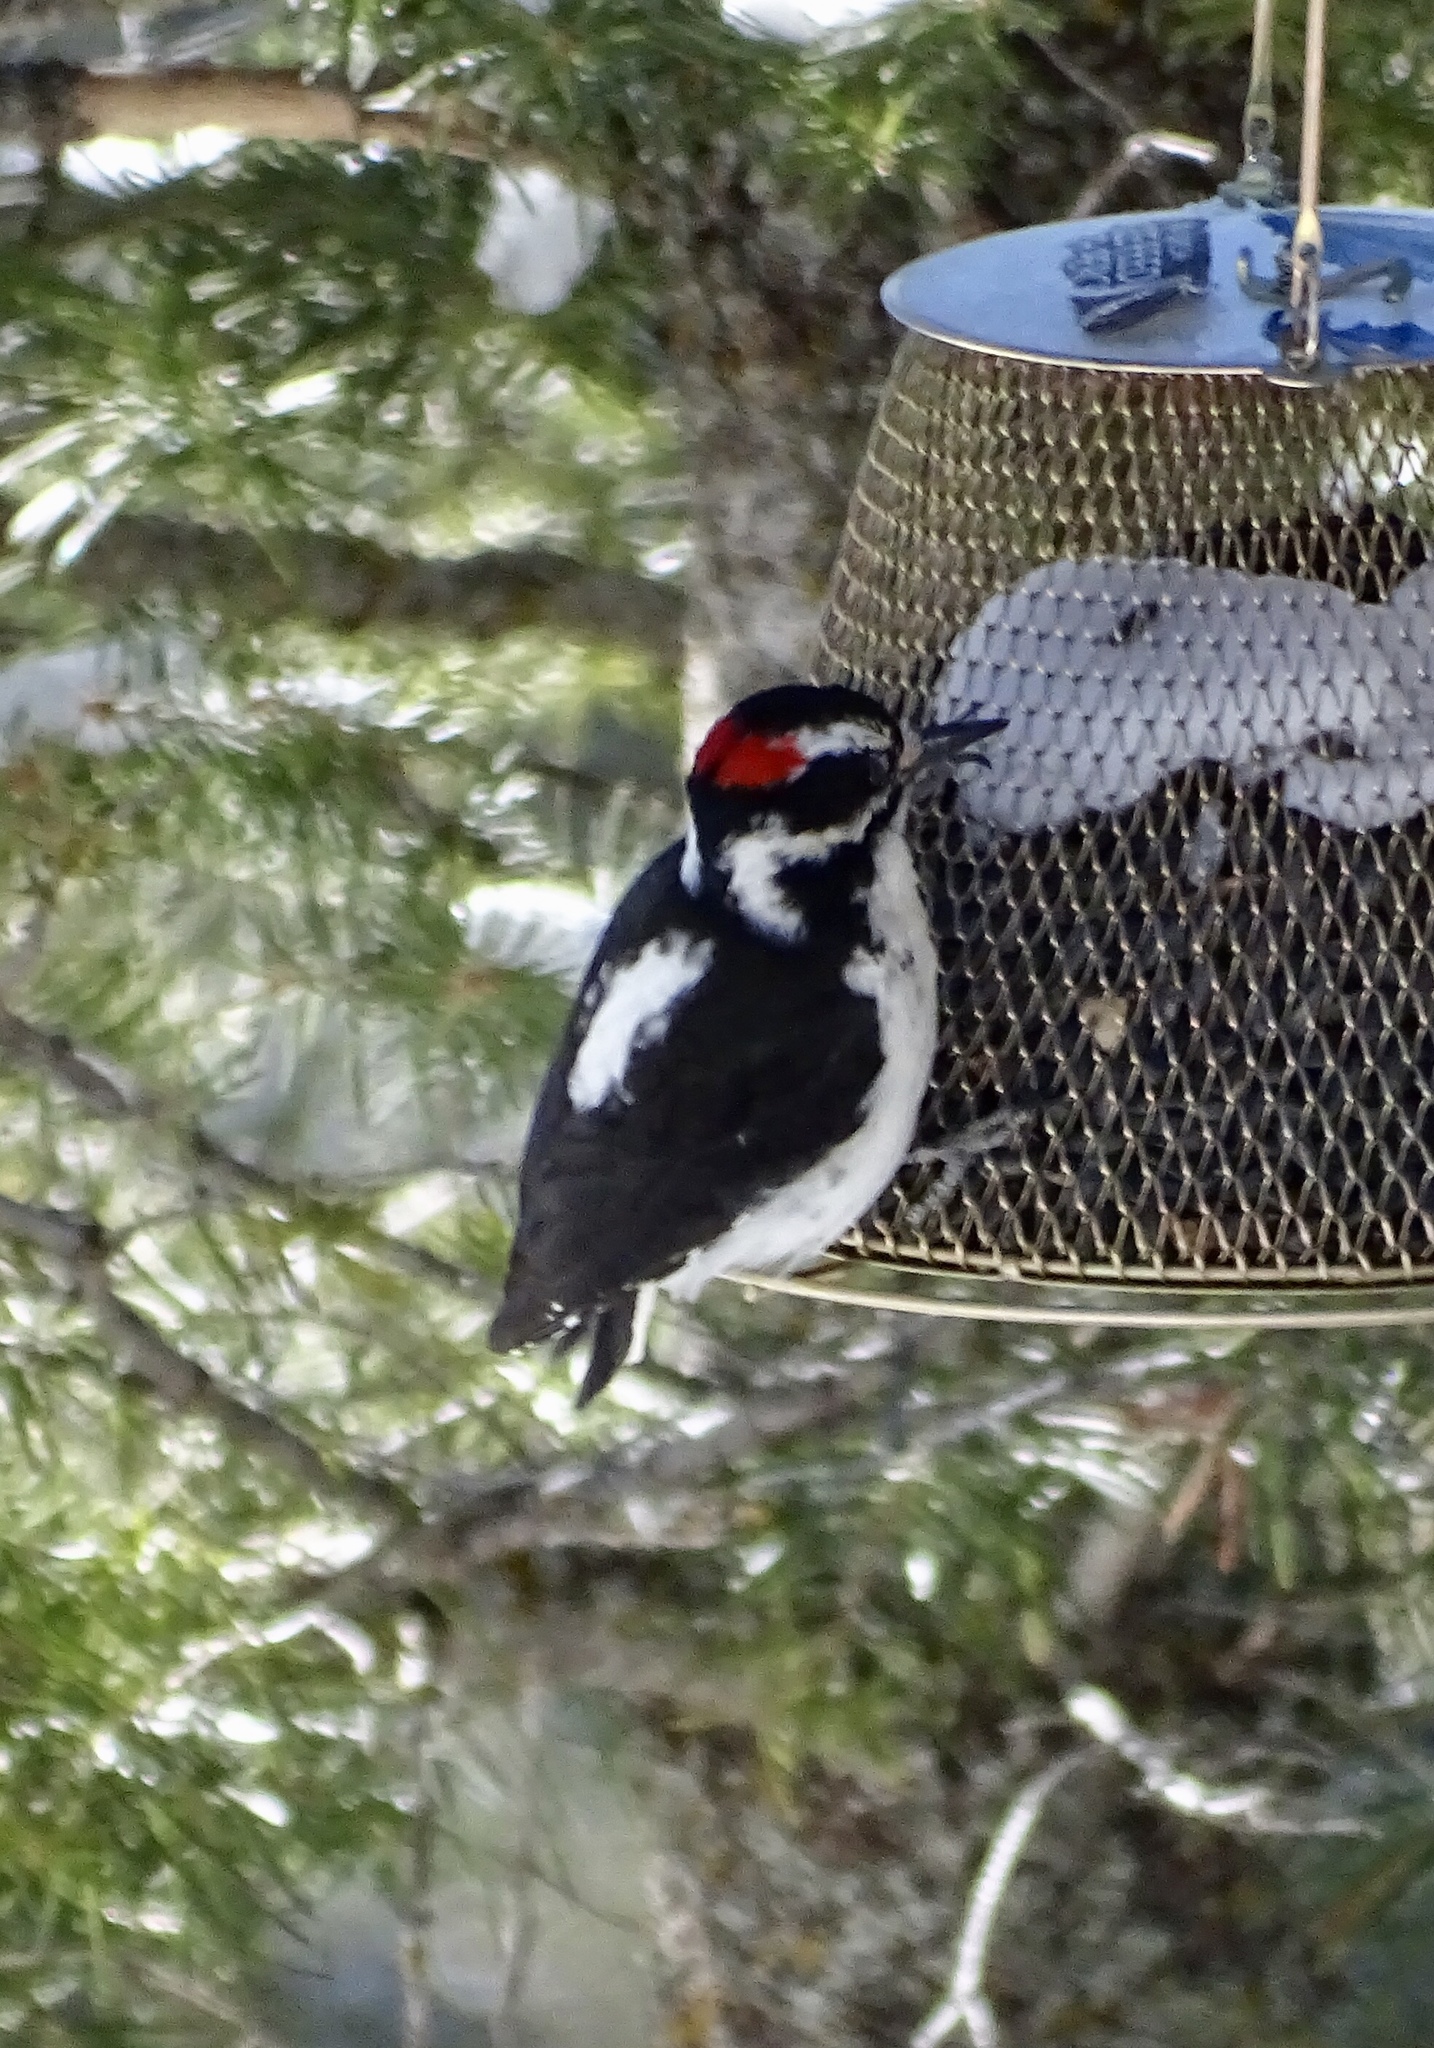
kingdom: Animalia
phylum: Chordata
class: Aves
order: Piciformes
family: Picidae
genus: Dryobates
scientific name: Dryobates pubescens
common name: Downy woodpecker
